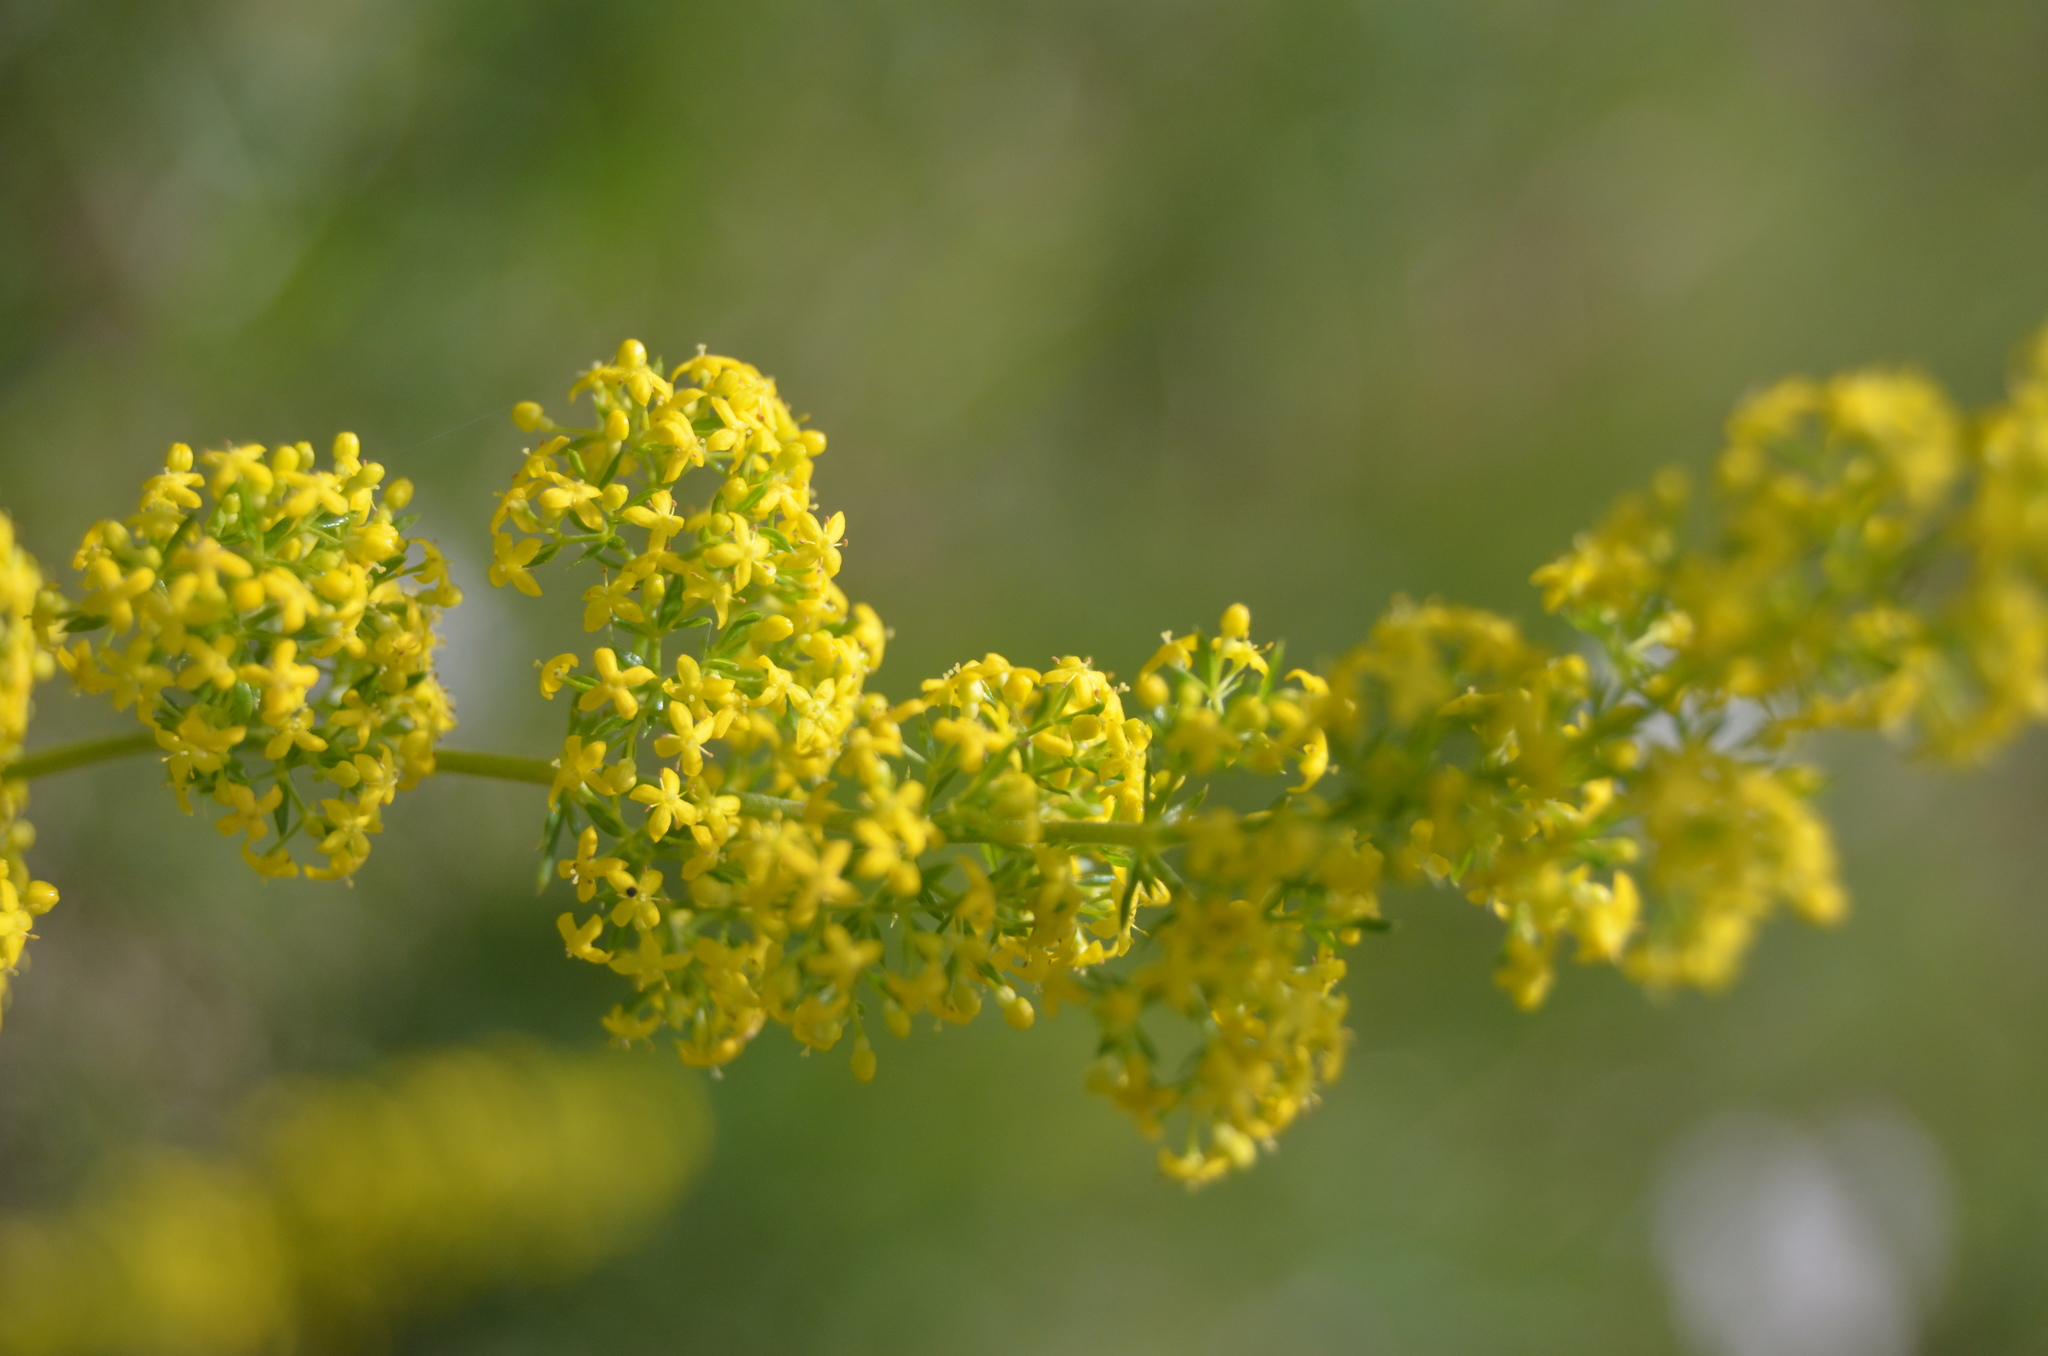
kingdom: Plantae
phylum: Tracheophyta
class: Magnoliopsida
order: Gentianales
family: Rubiaceae
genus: Galium
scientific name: Galium verum
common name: Lady's bedstraw
